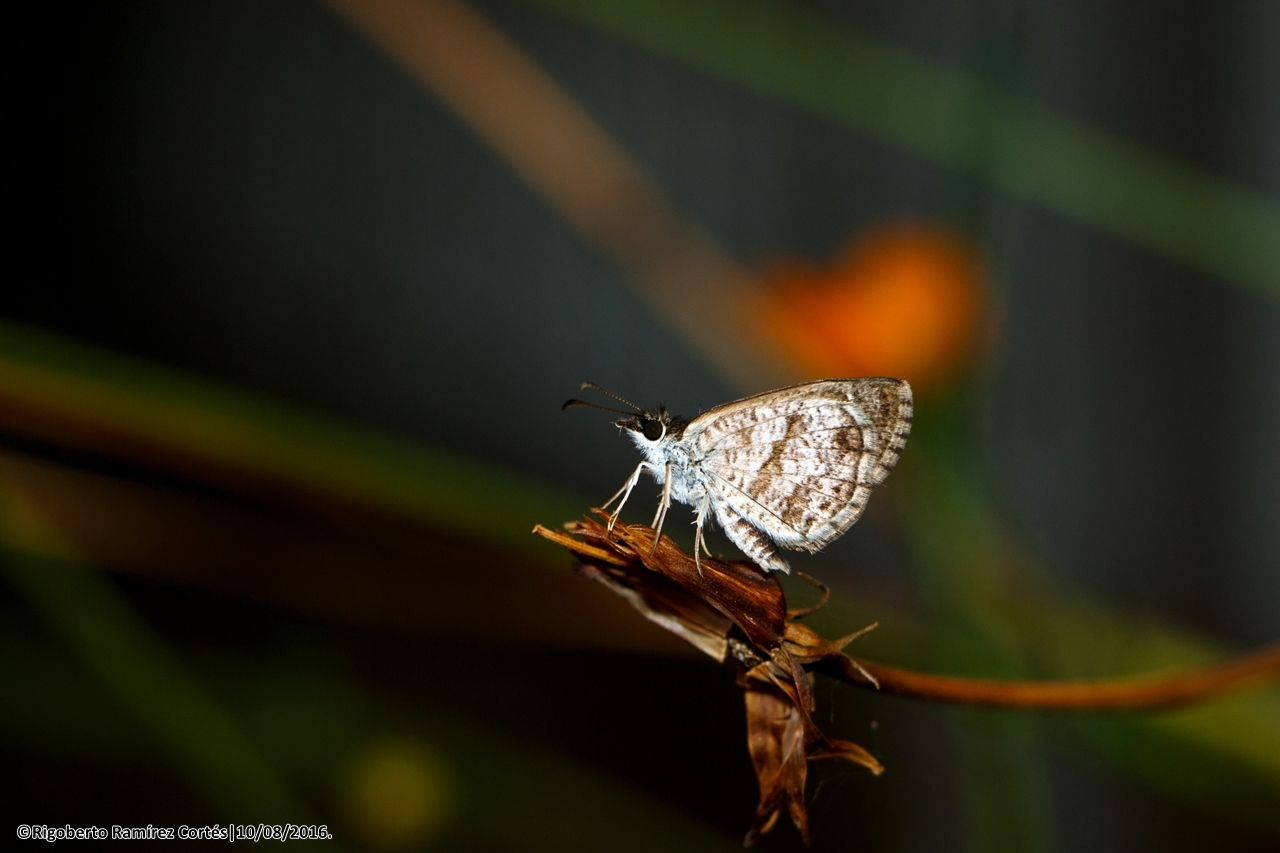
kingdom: Animalia
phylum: Arthropoda
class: Insecta
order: Lepidoptera
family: Hesperiidae
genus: Zopyrion
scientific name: Zopyrion sandace
